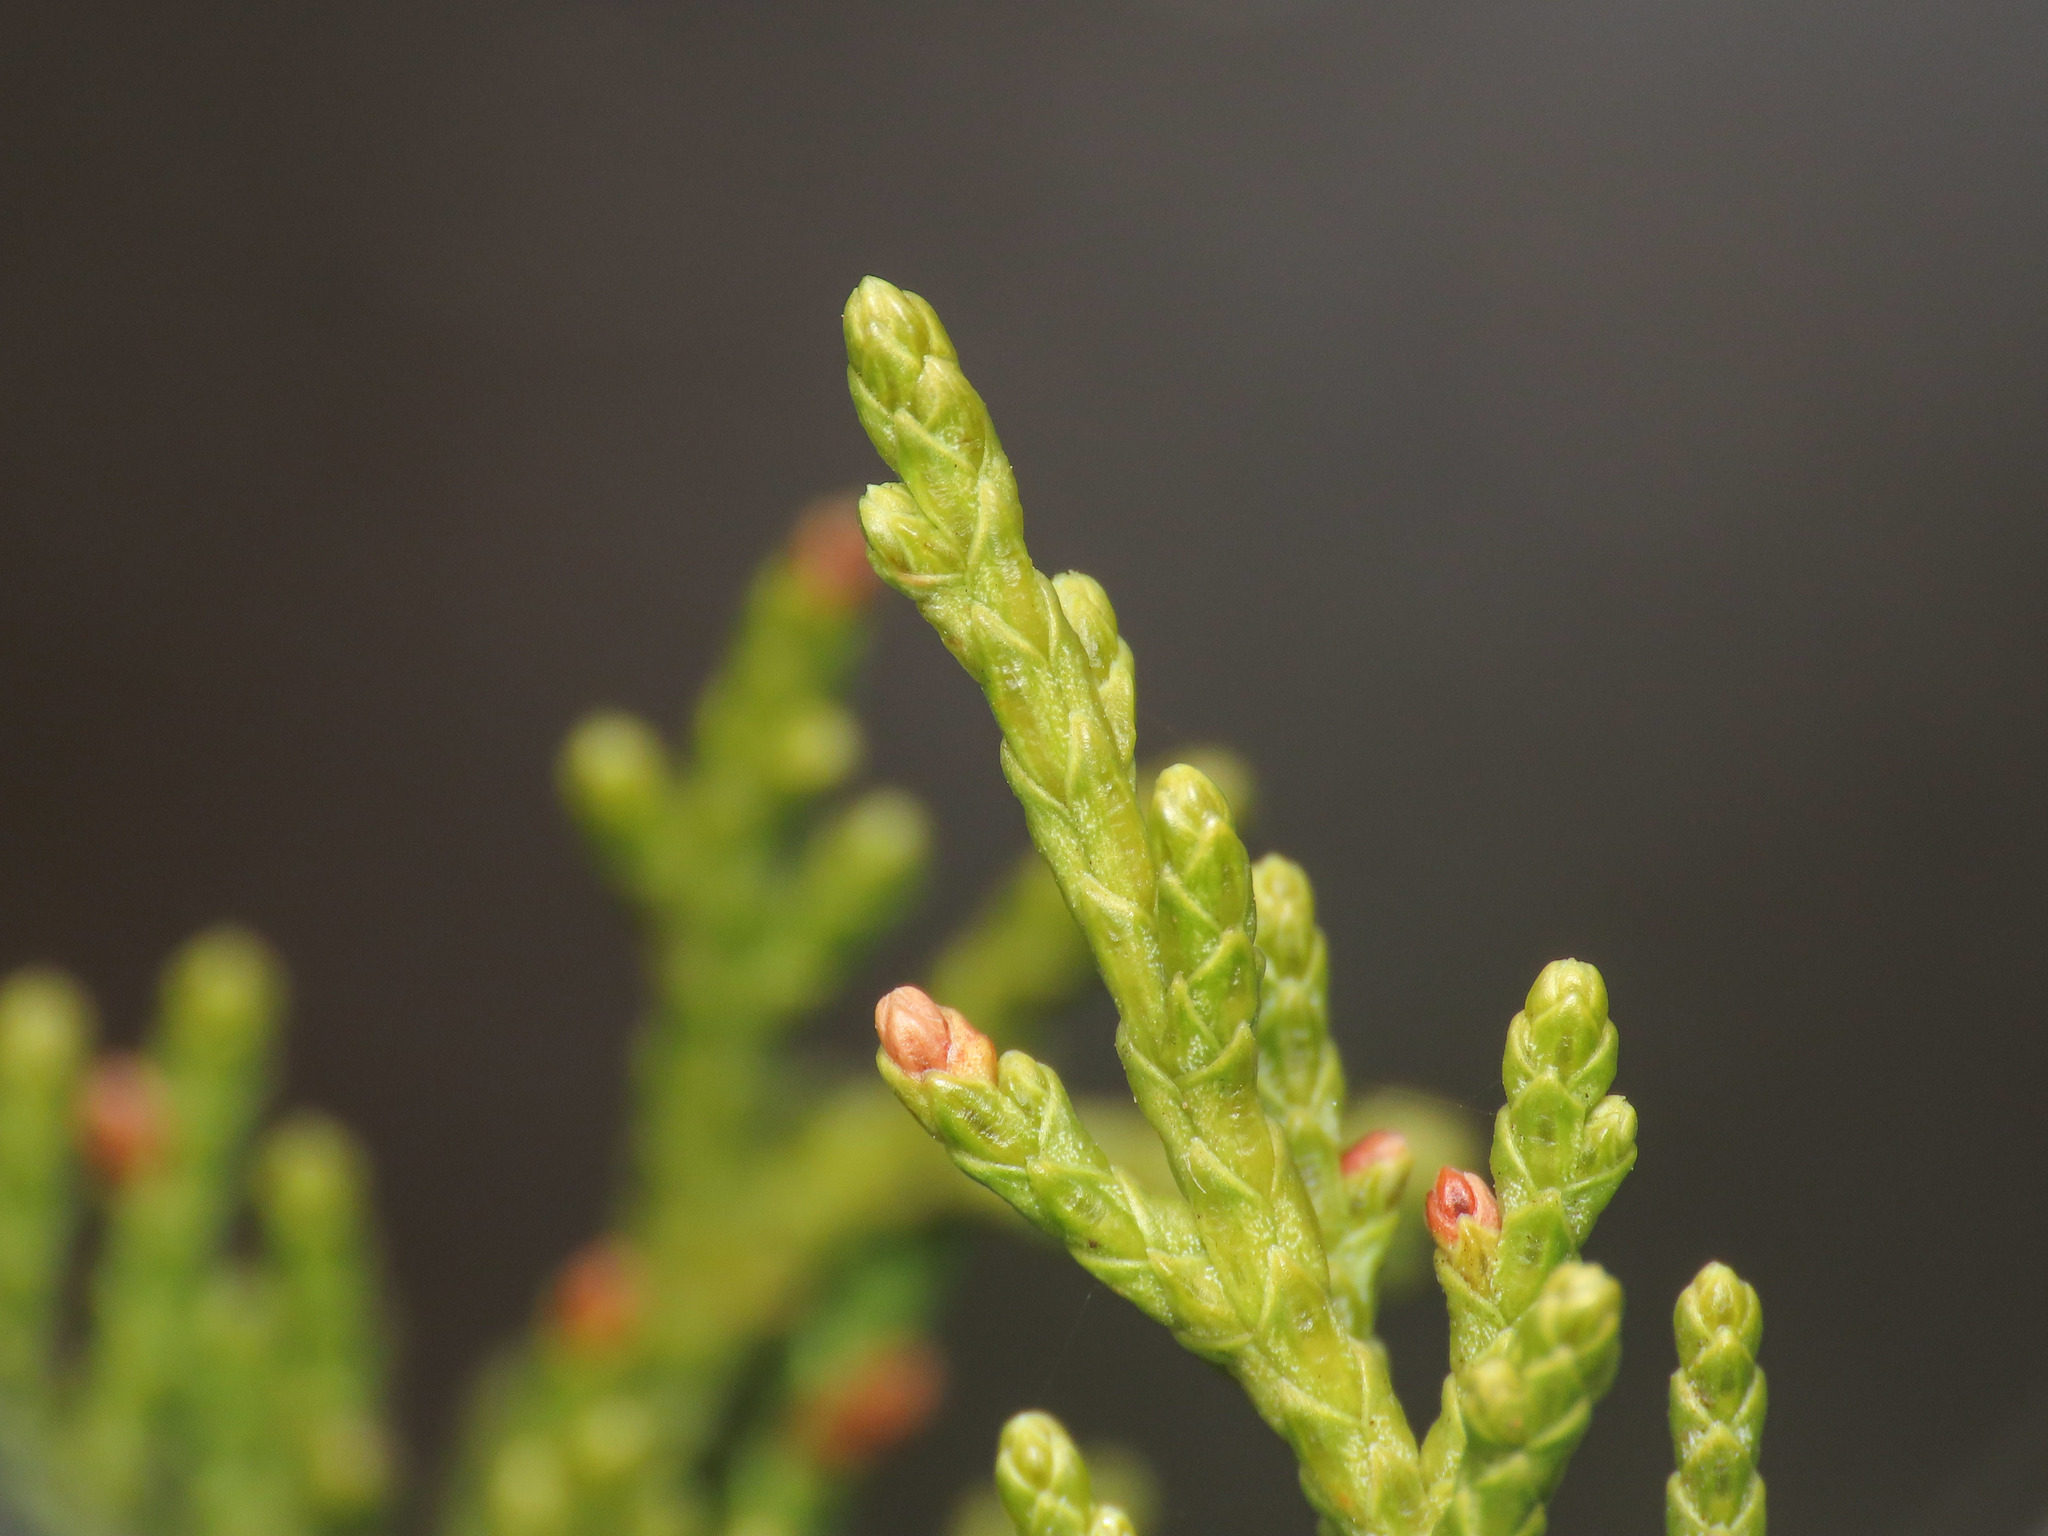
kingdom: Plantae
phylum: Tracheophyta
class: Pinopsida
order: Pinales
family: Cupressaceae
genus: Juniperus
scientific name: Juniperus phoenicea
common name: Phoenician juniper
